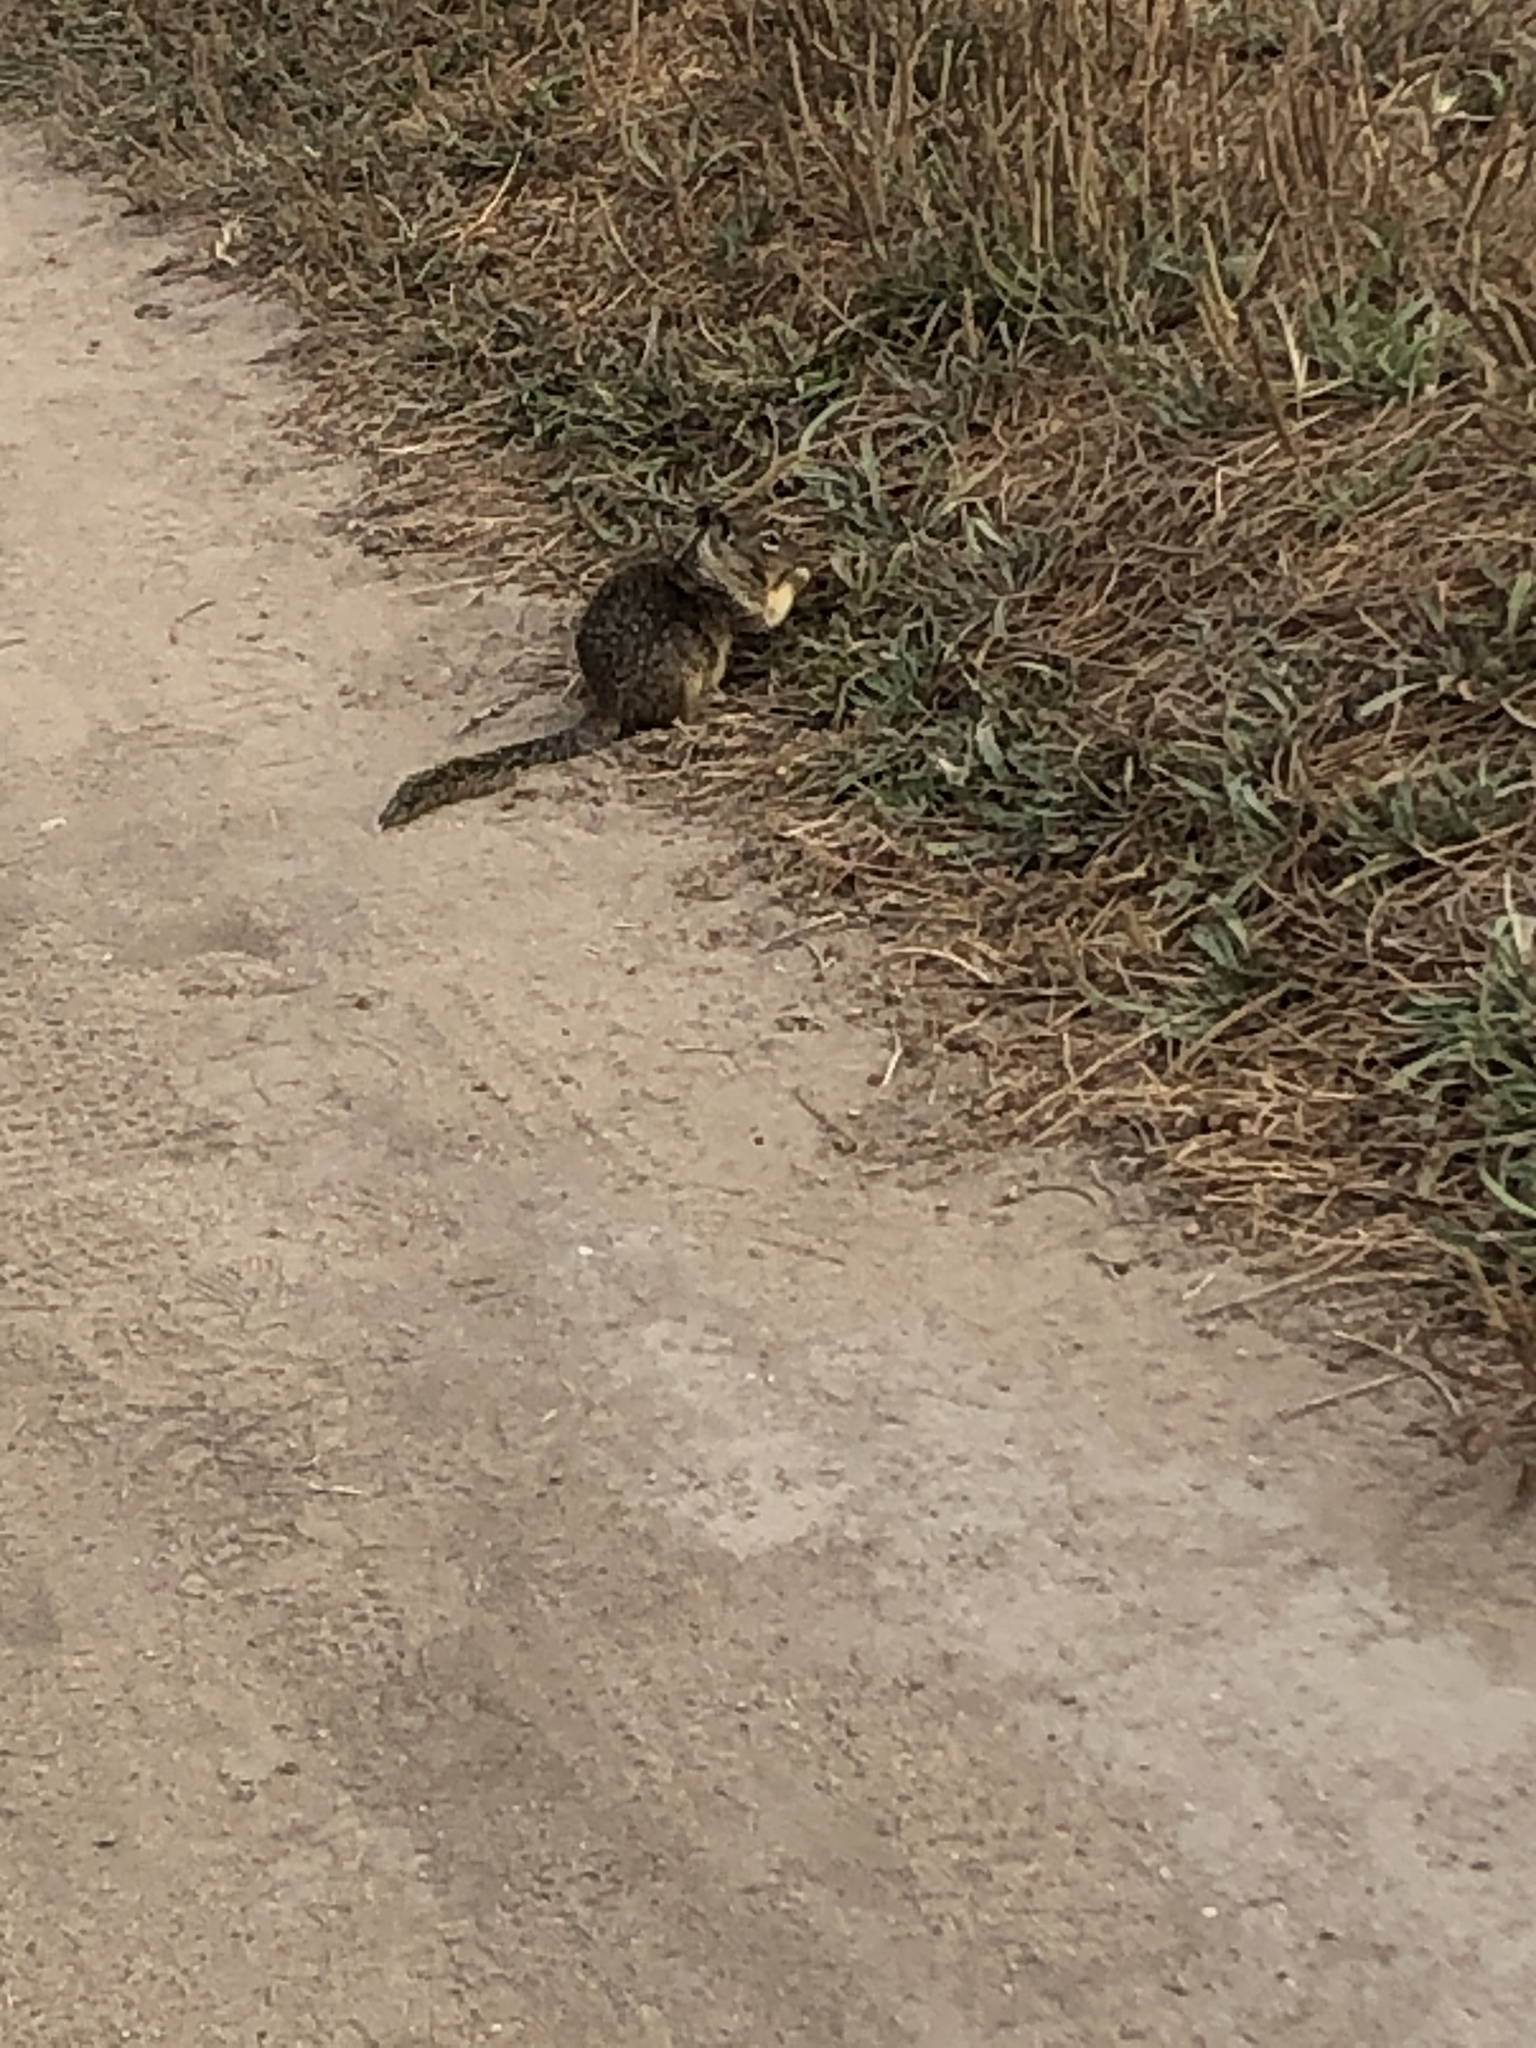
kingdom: Animalia
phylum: Chordata
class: Mammalia
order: Rodentia
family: Sciuridae
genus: Otospermophilus
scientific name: Otospermophilus beecheyi
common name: California ground squirrel
